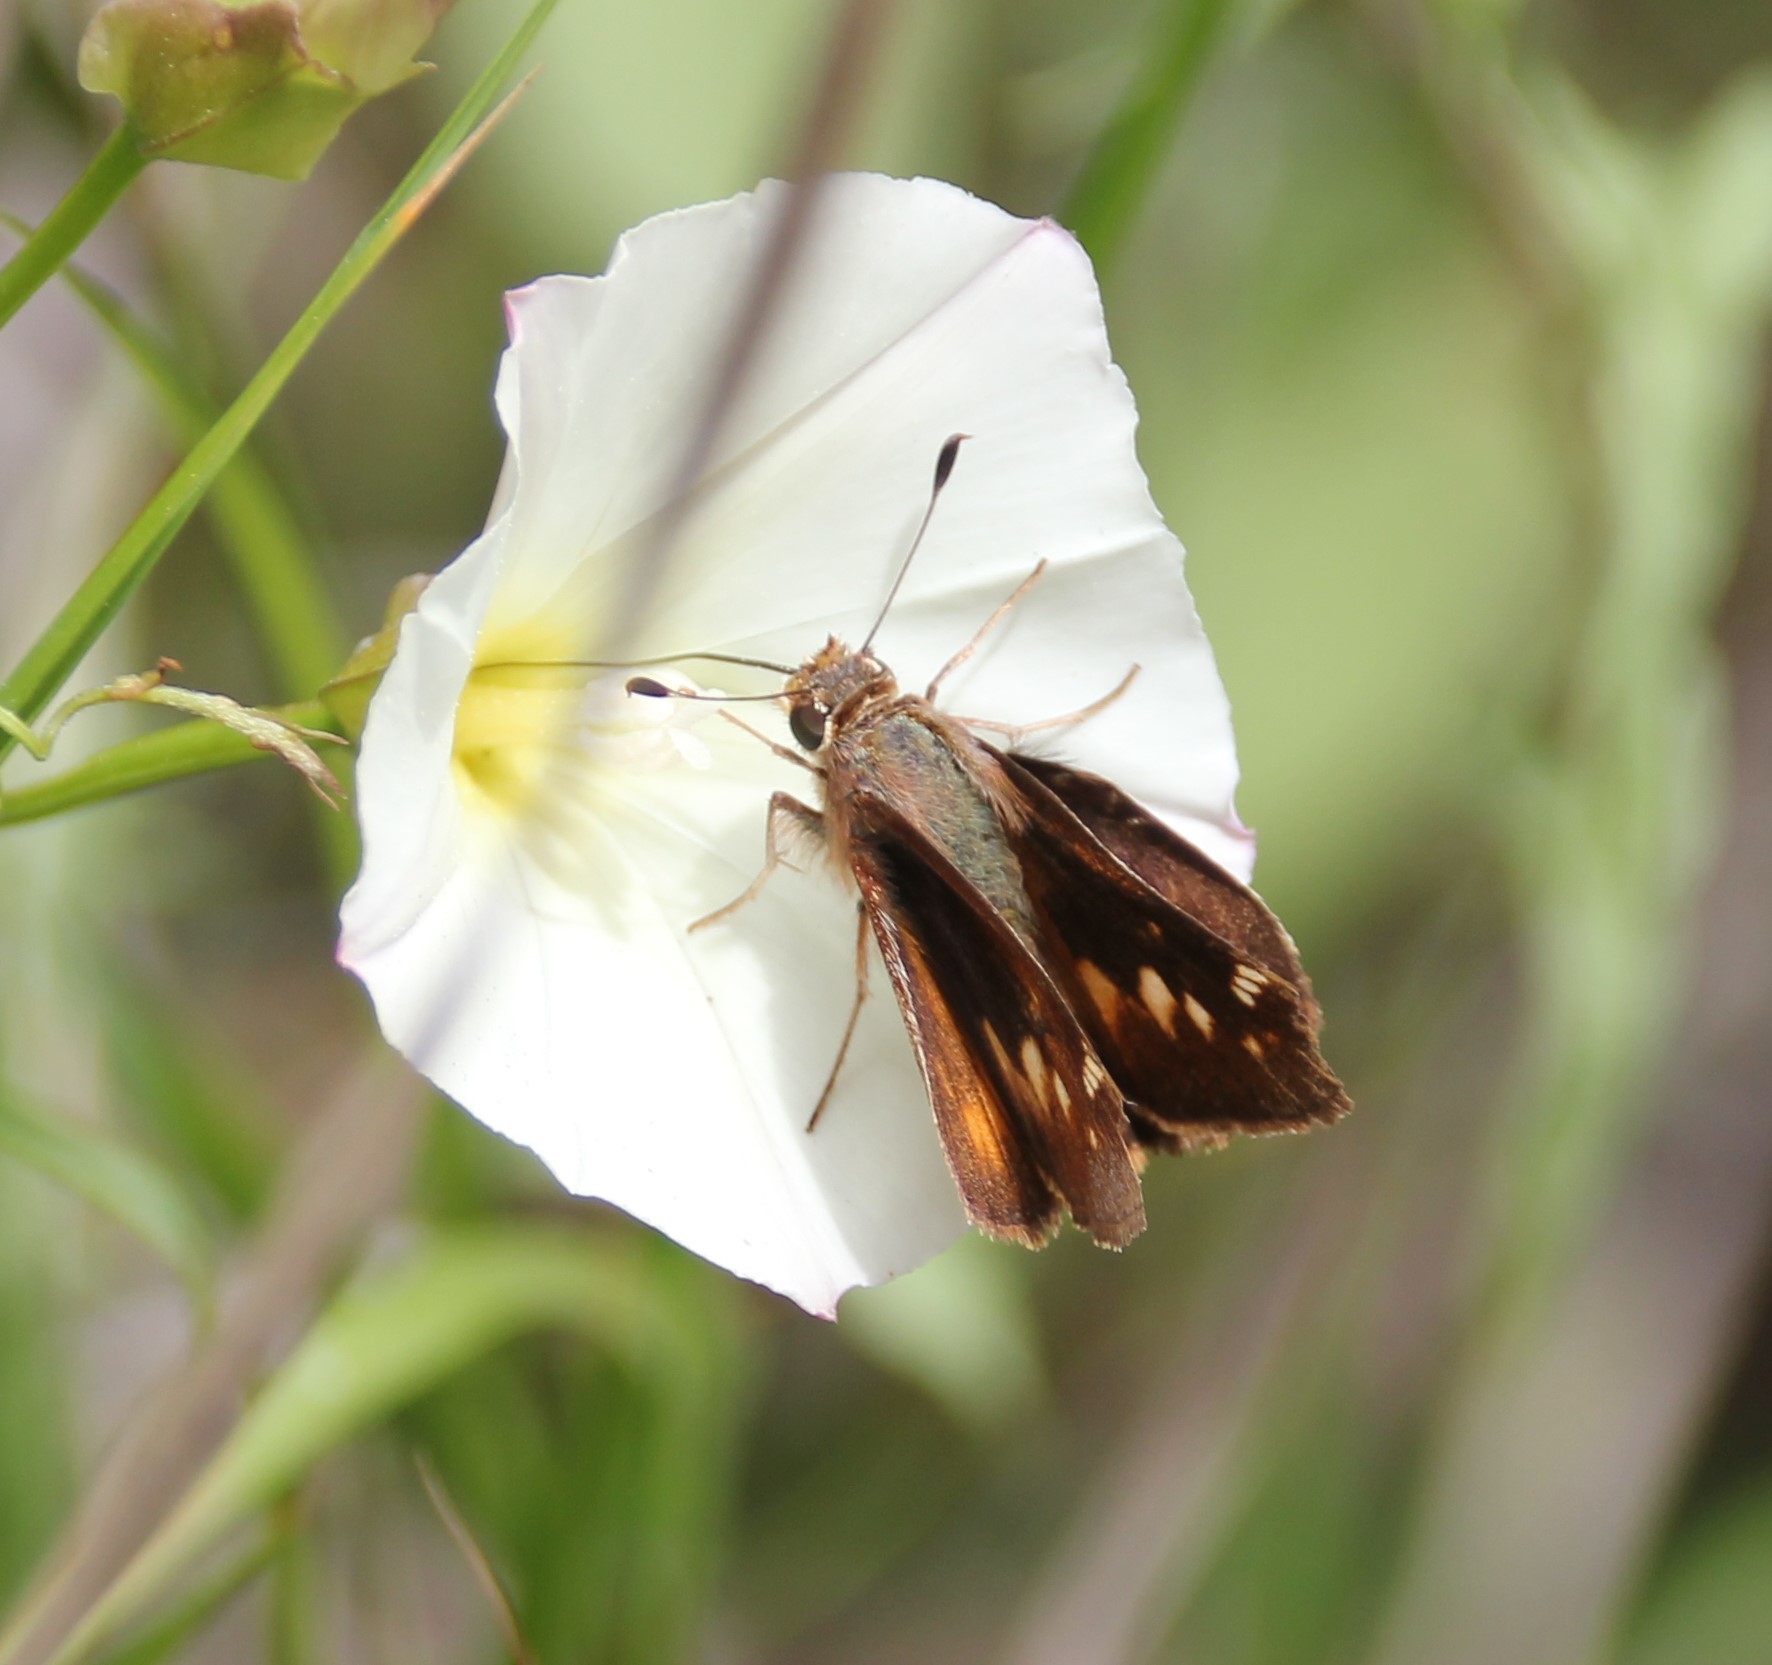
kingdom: Animalia
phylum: Arthropoda
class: Insecta
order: Lepidoptera
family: Hesperiidae
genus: Lon
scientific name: Lon melane
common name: Umber skipper
